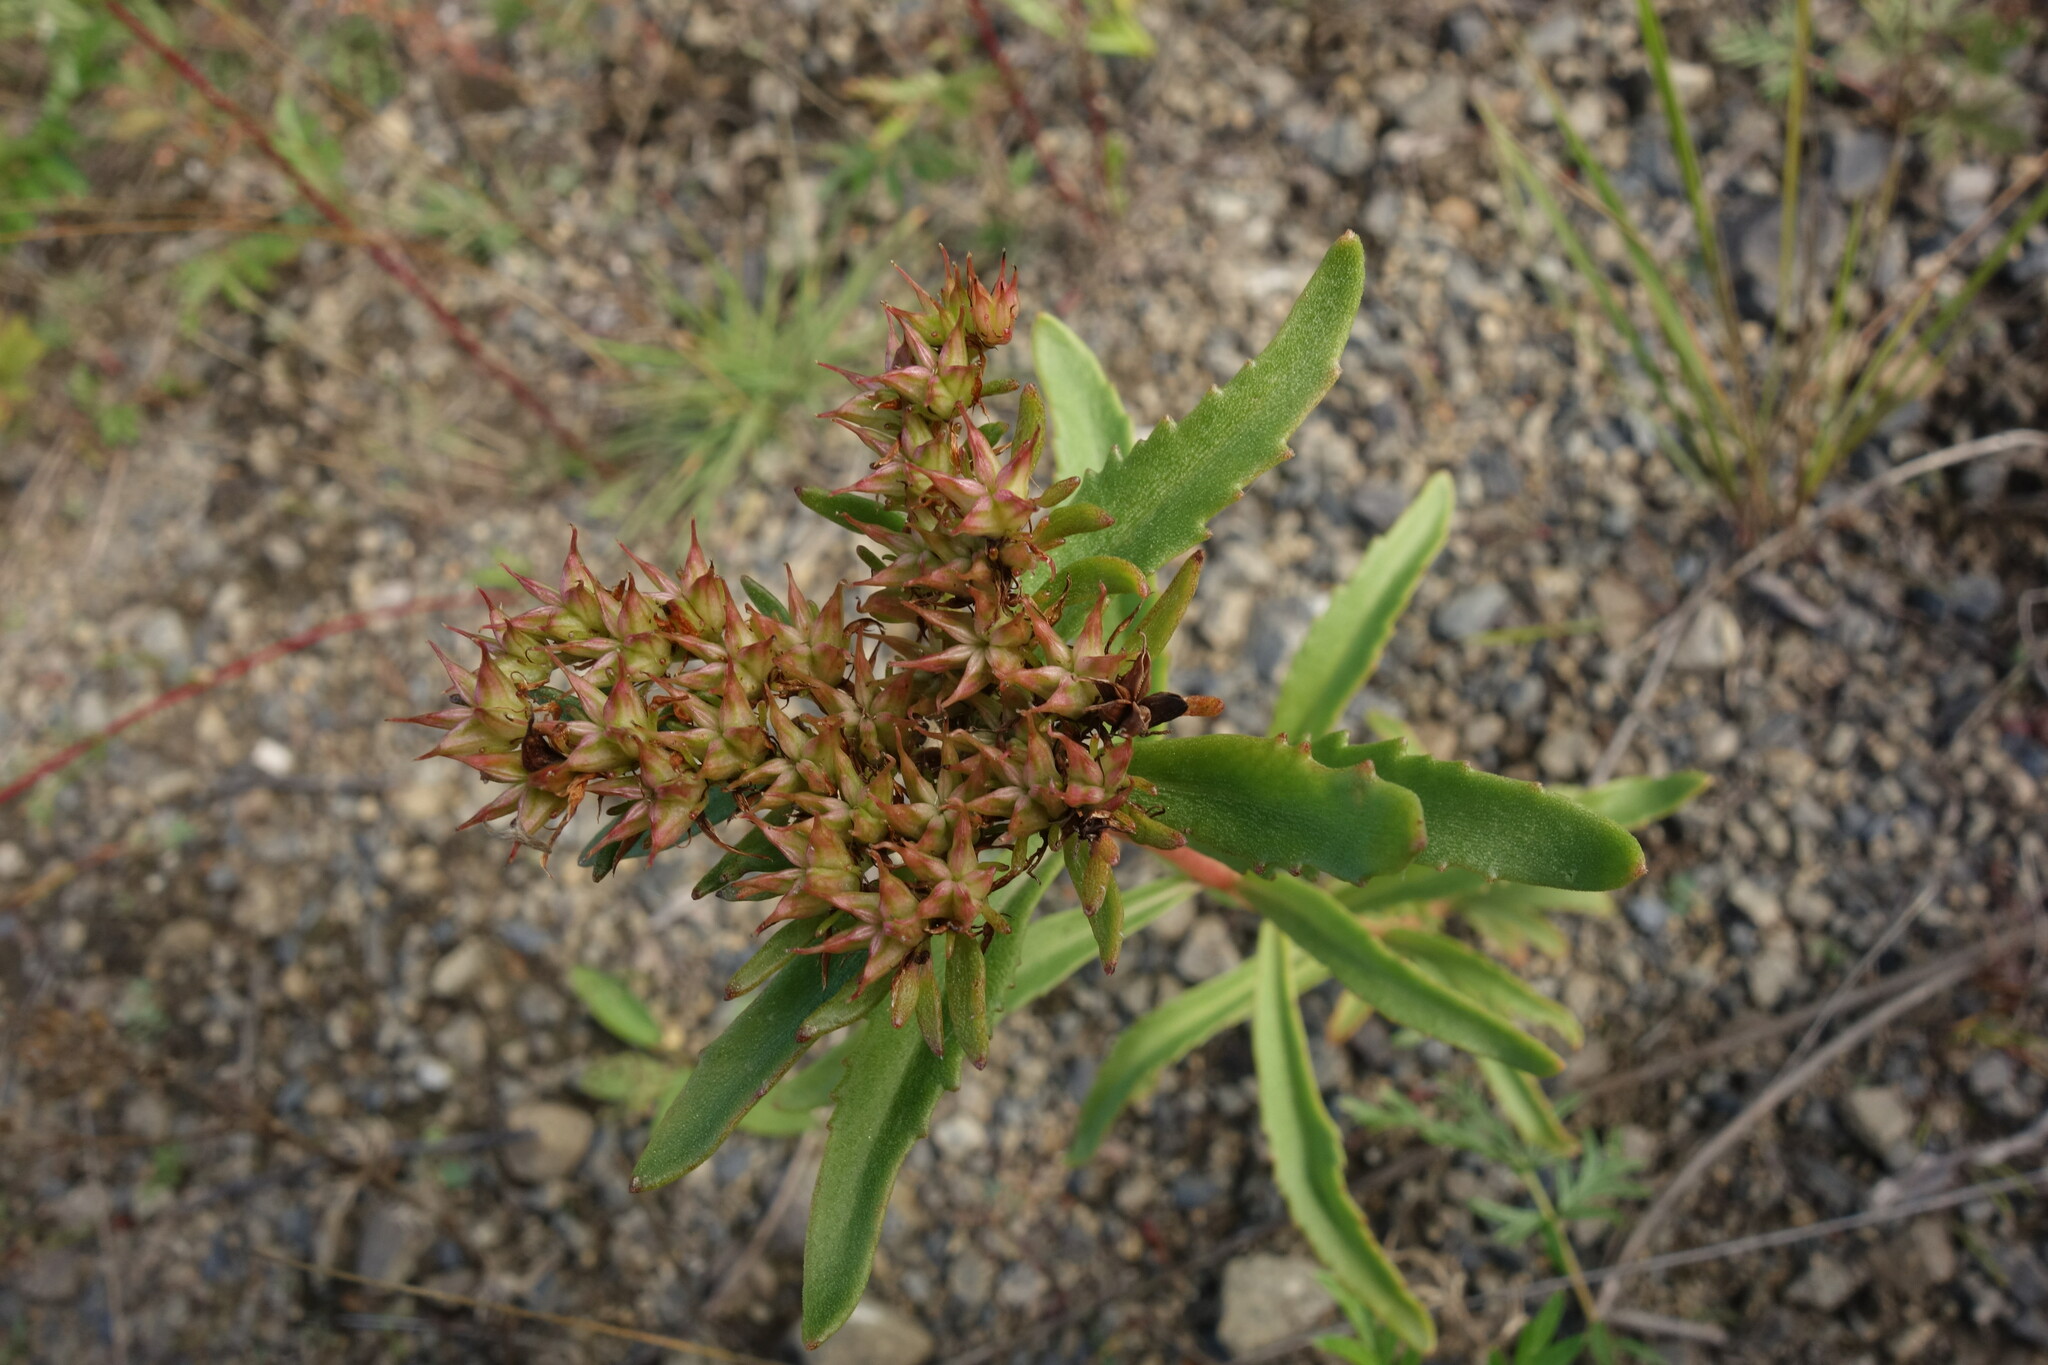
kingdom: Plantae
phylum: Tracheophyta
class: Magnoliopsida
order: Saxifragales
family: Crassulaceae
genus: Phedimus
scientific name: Phedimus aizoon
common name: Orpin aizoon
